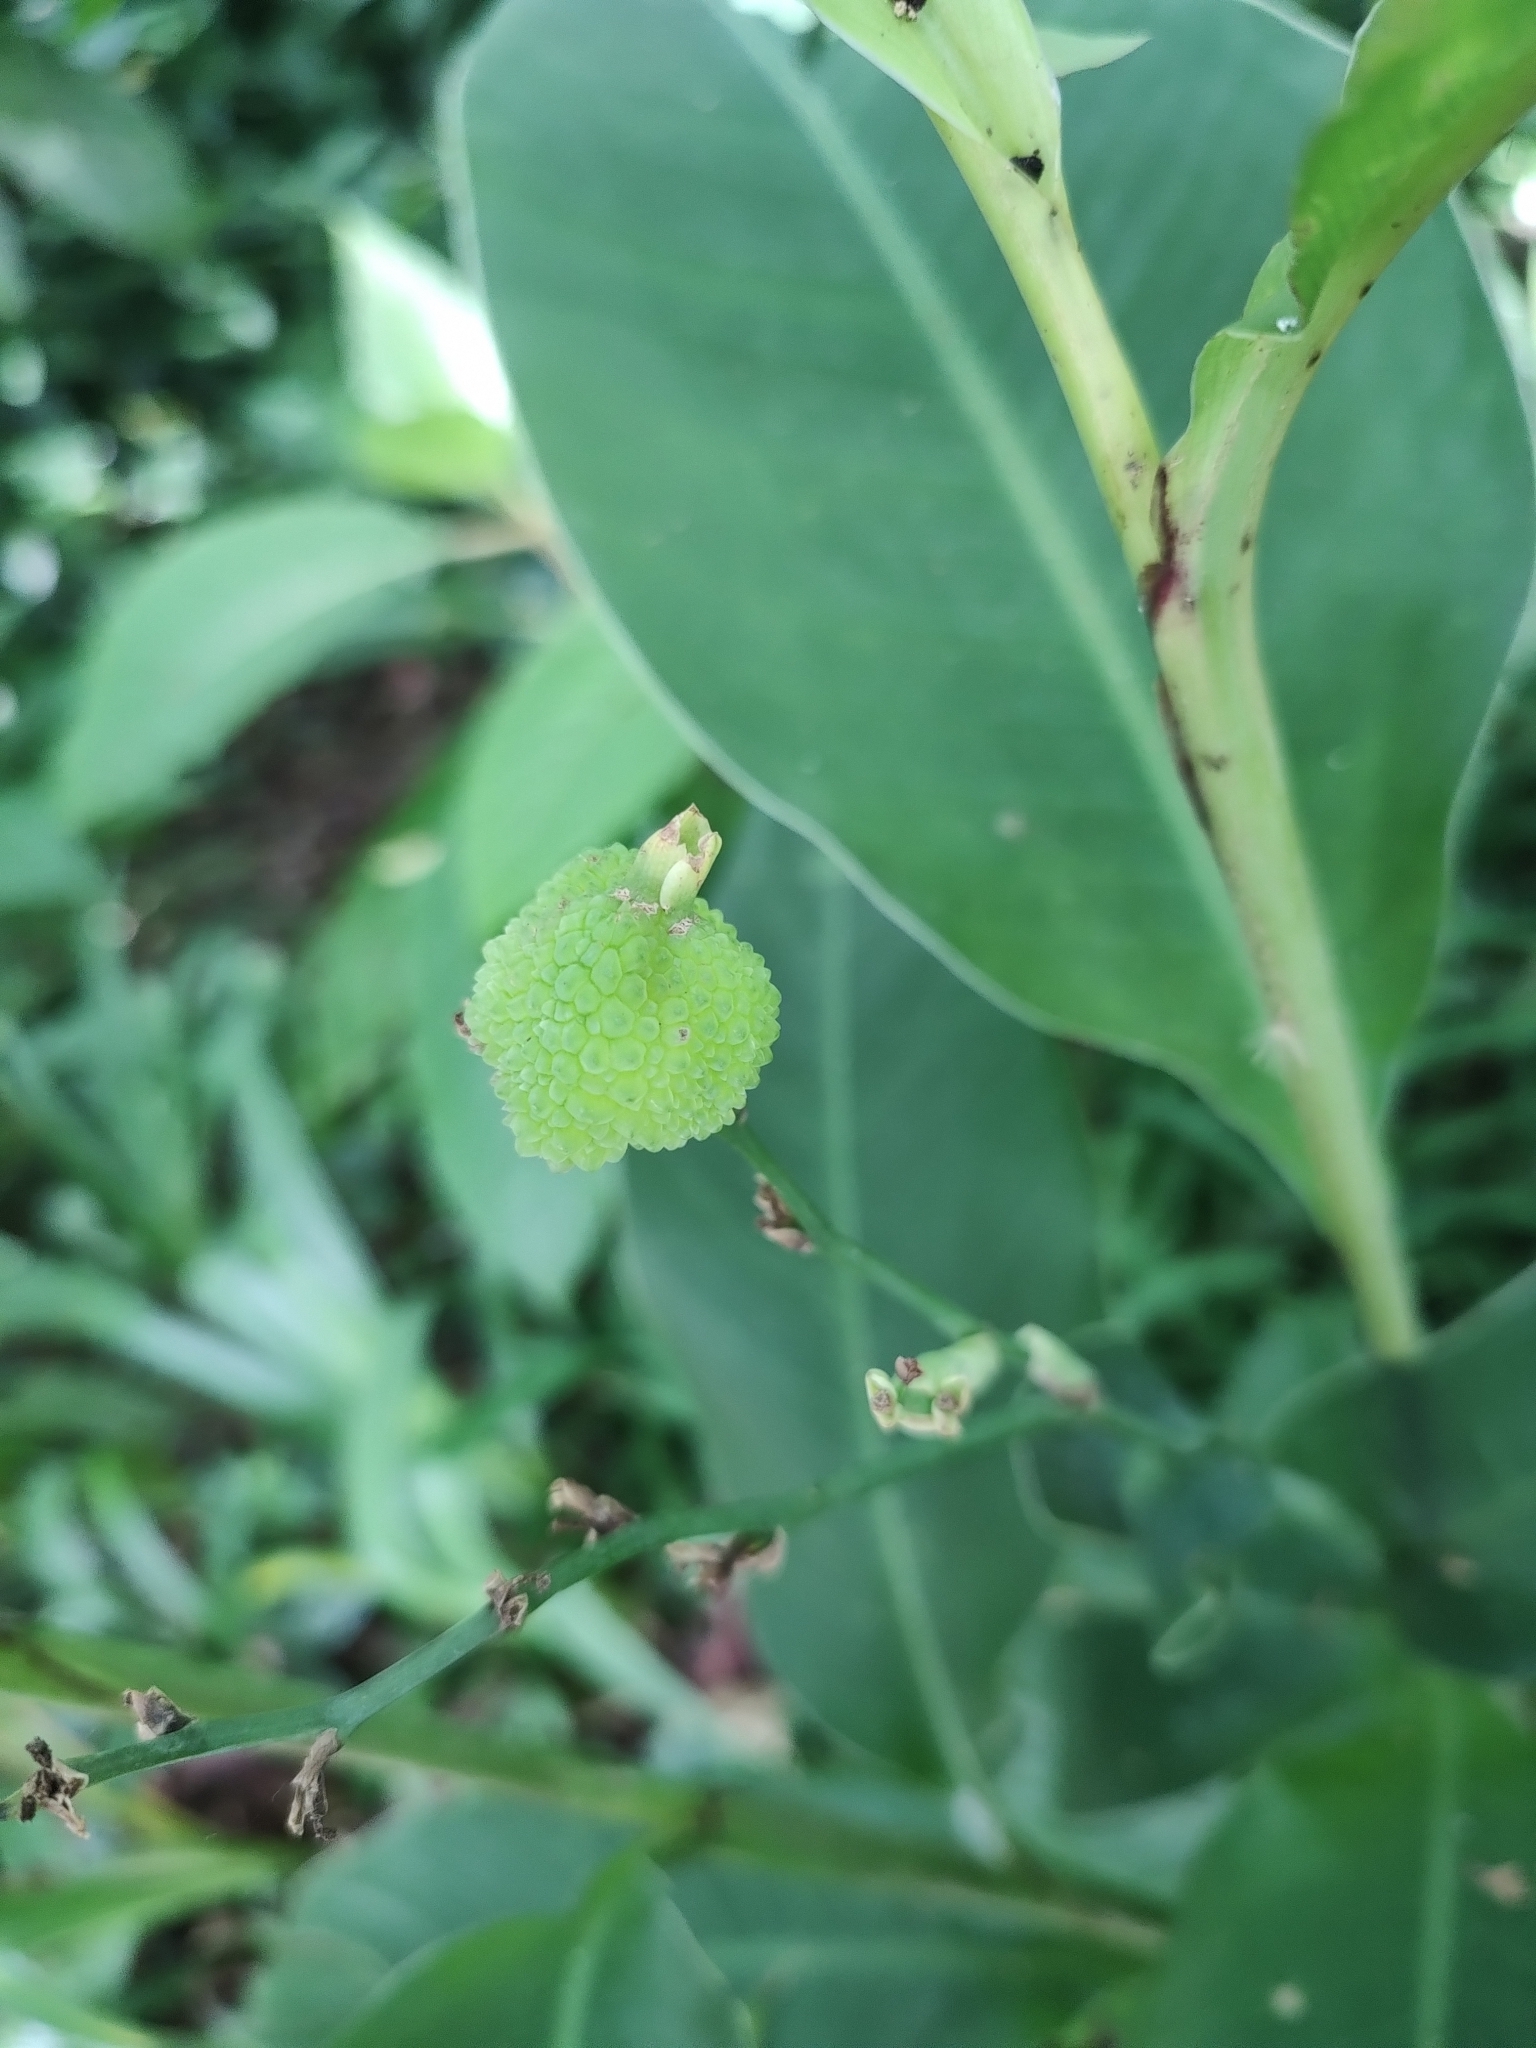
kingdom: Plantae
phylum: Tracheophyta
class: Liliopsida
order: Zingiberales
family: Cannaceae
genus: Canna
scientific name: Canna indica
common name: Indian shot
